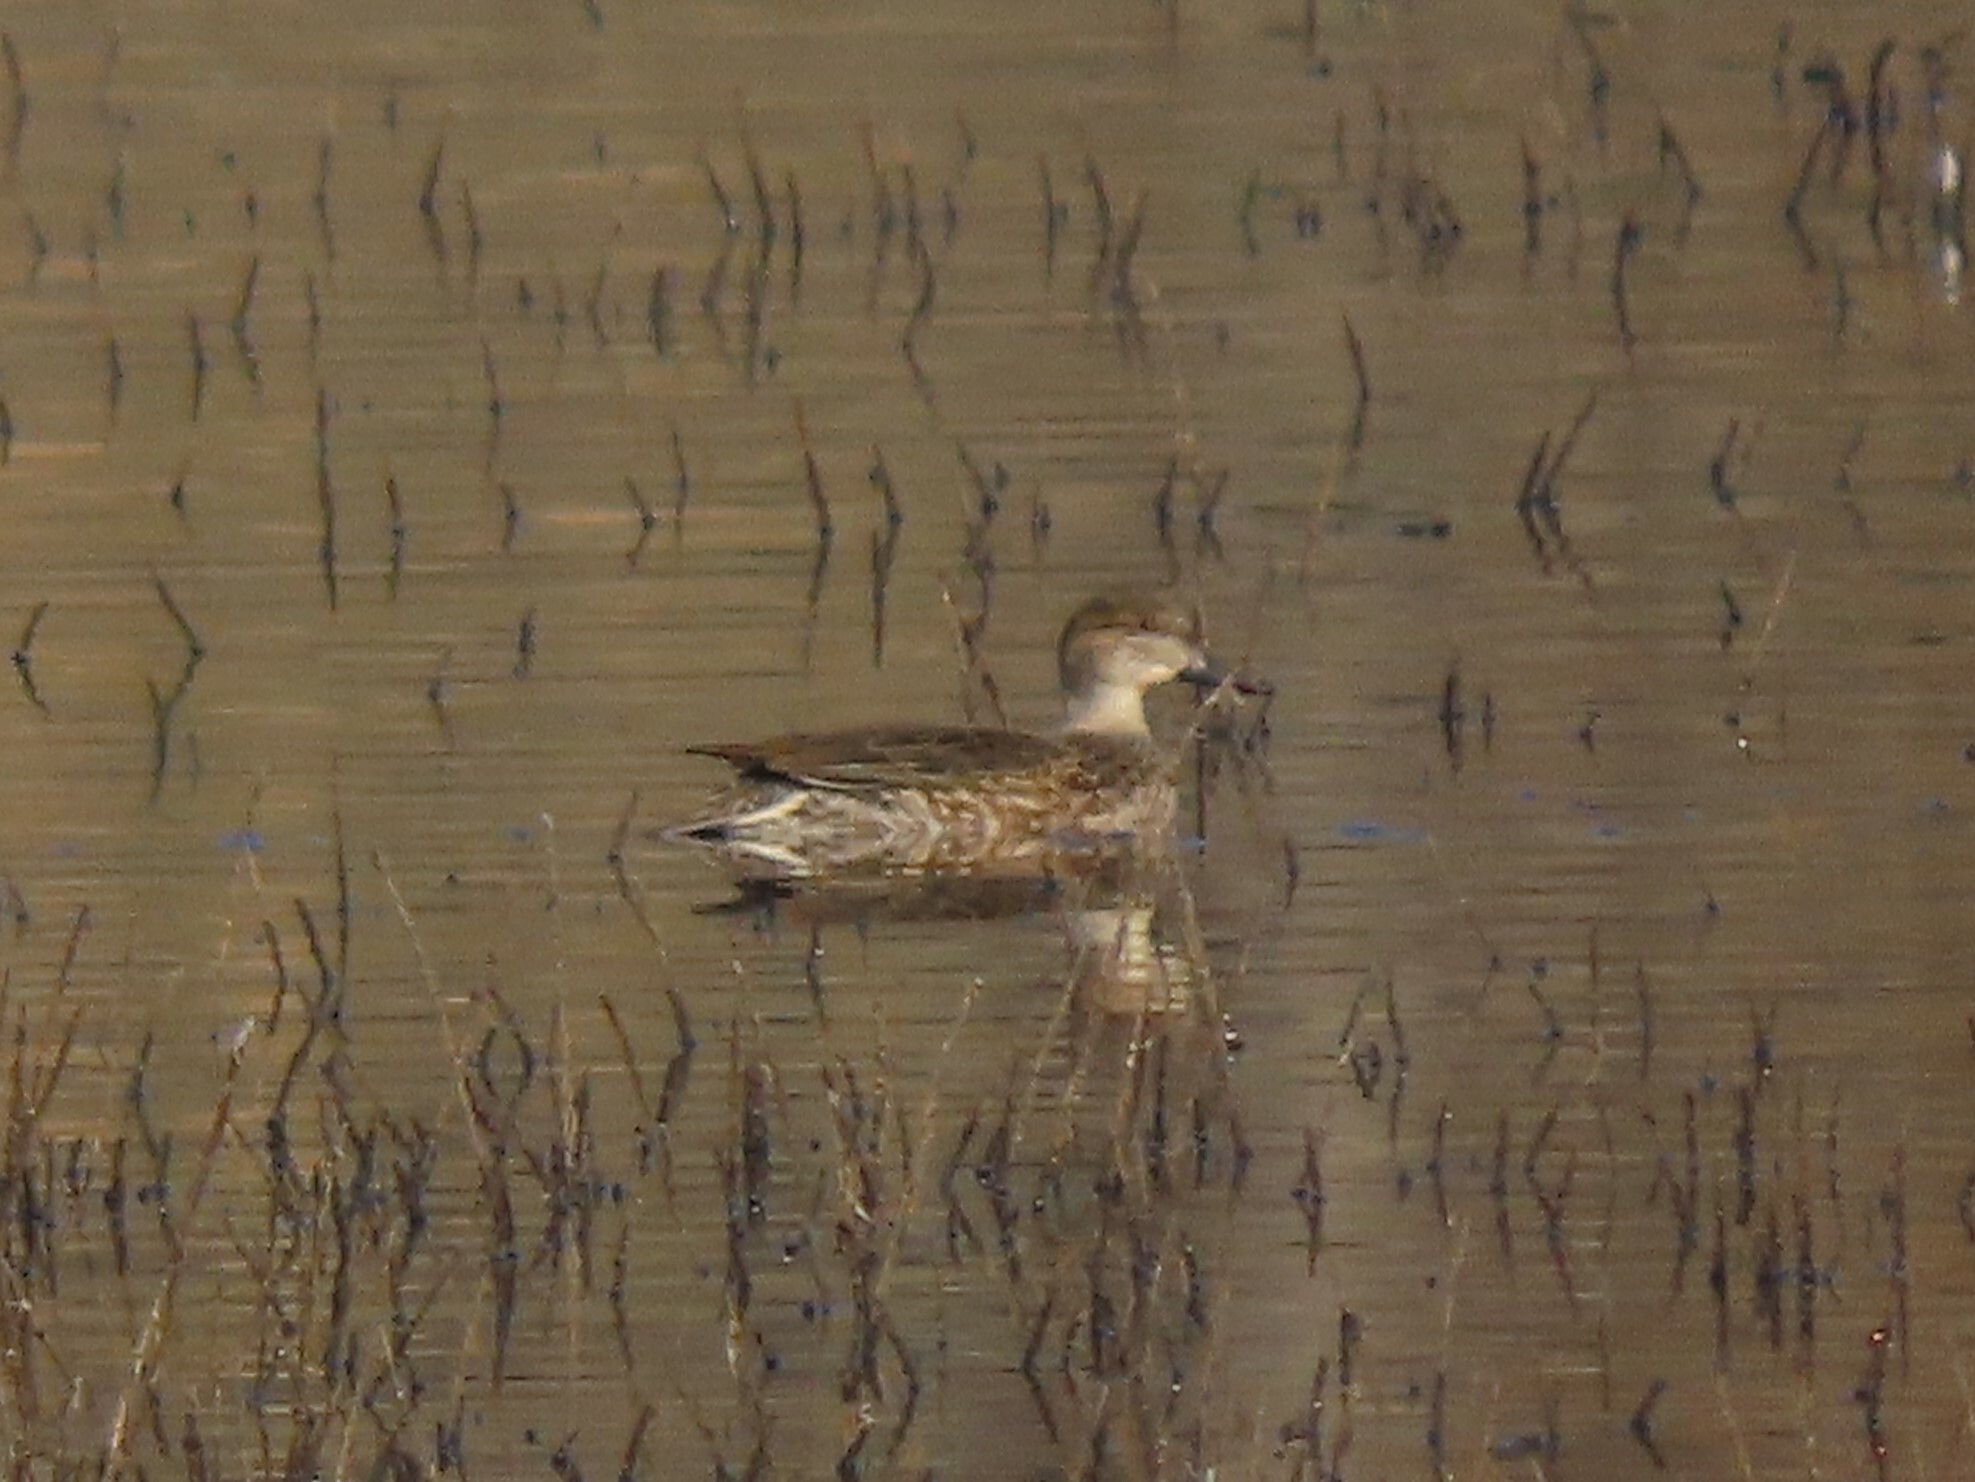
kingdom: Animalia
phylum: Chordata
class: Aves
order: Anseriformes
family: Anatidae
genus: Anas
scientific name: Anas crecca
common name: Eurasian teal
